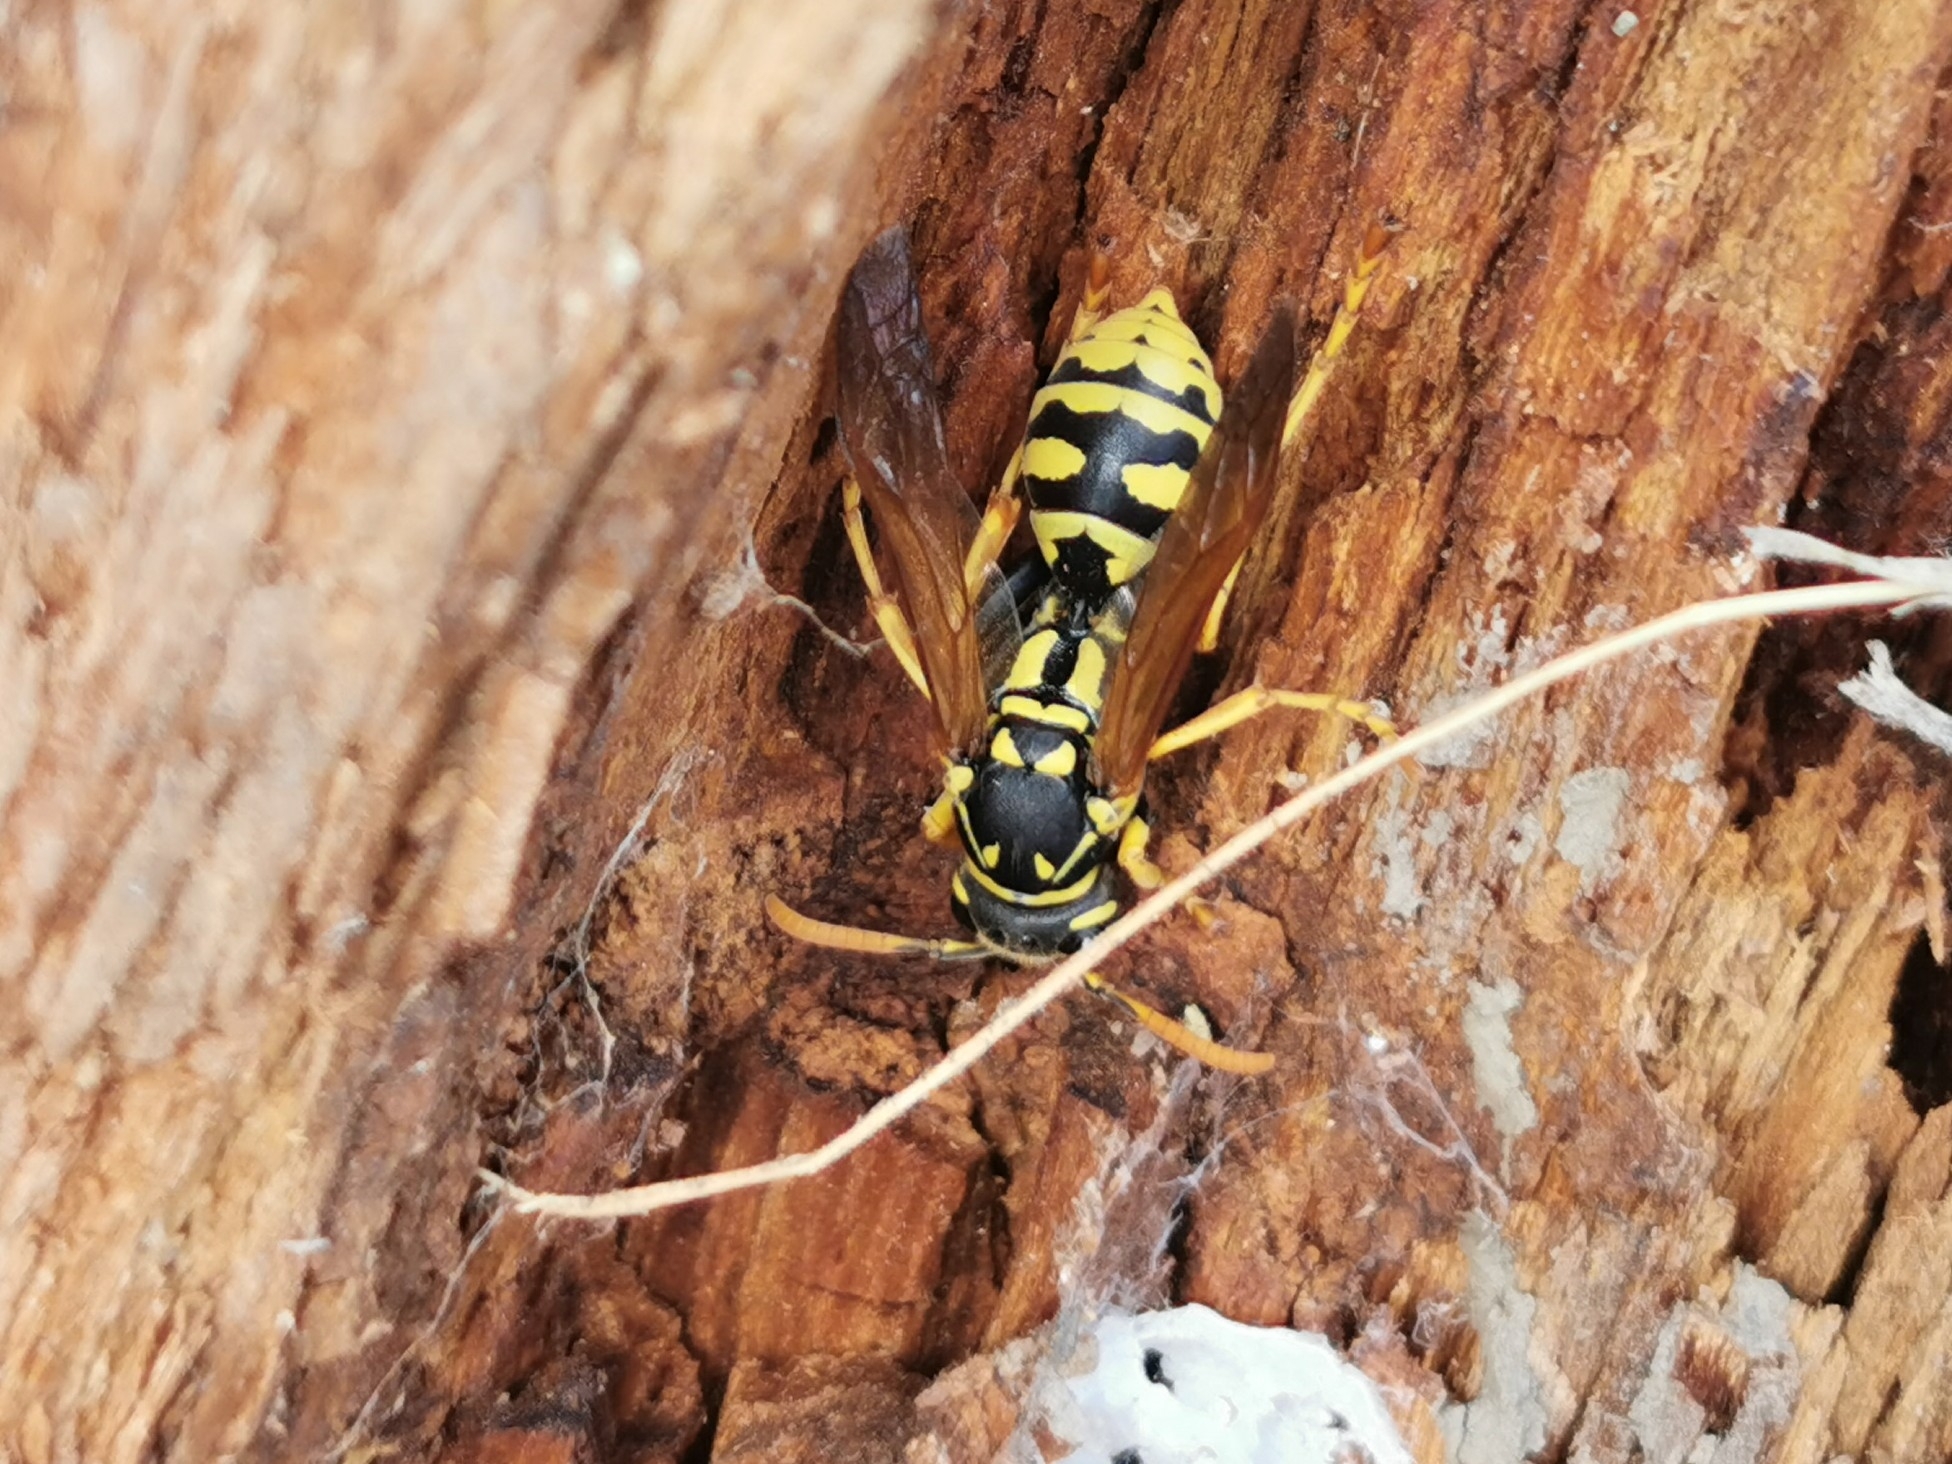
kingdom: Animalia
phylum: Arthropoda
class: Insecta
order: Hymenoptera
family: Eumenidae
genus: Polistes
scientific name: Polistes dominula
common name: Paper wasp
